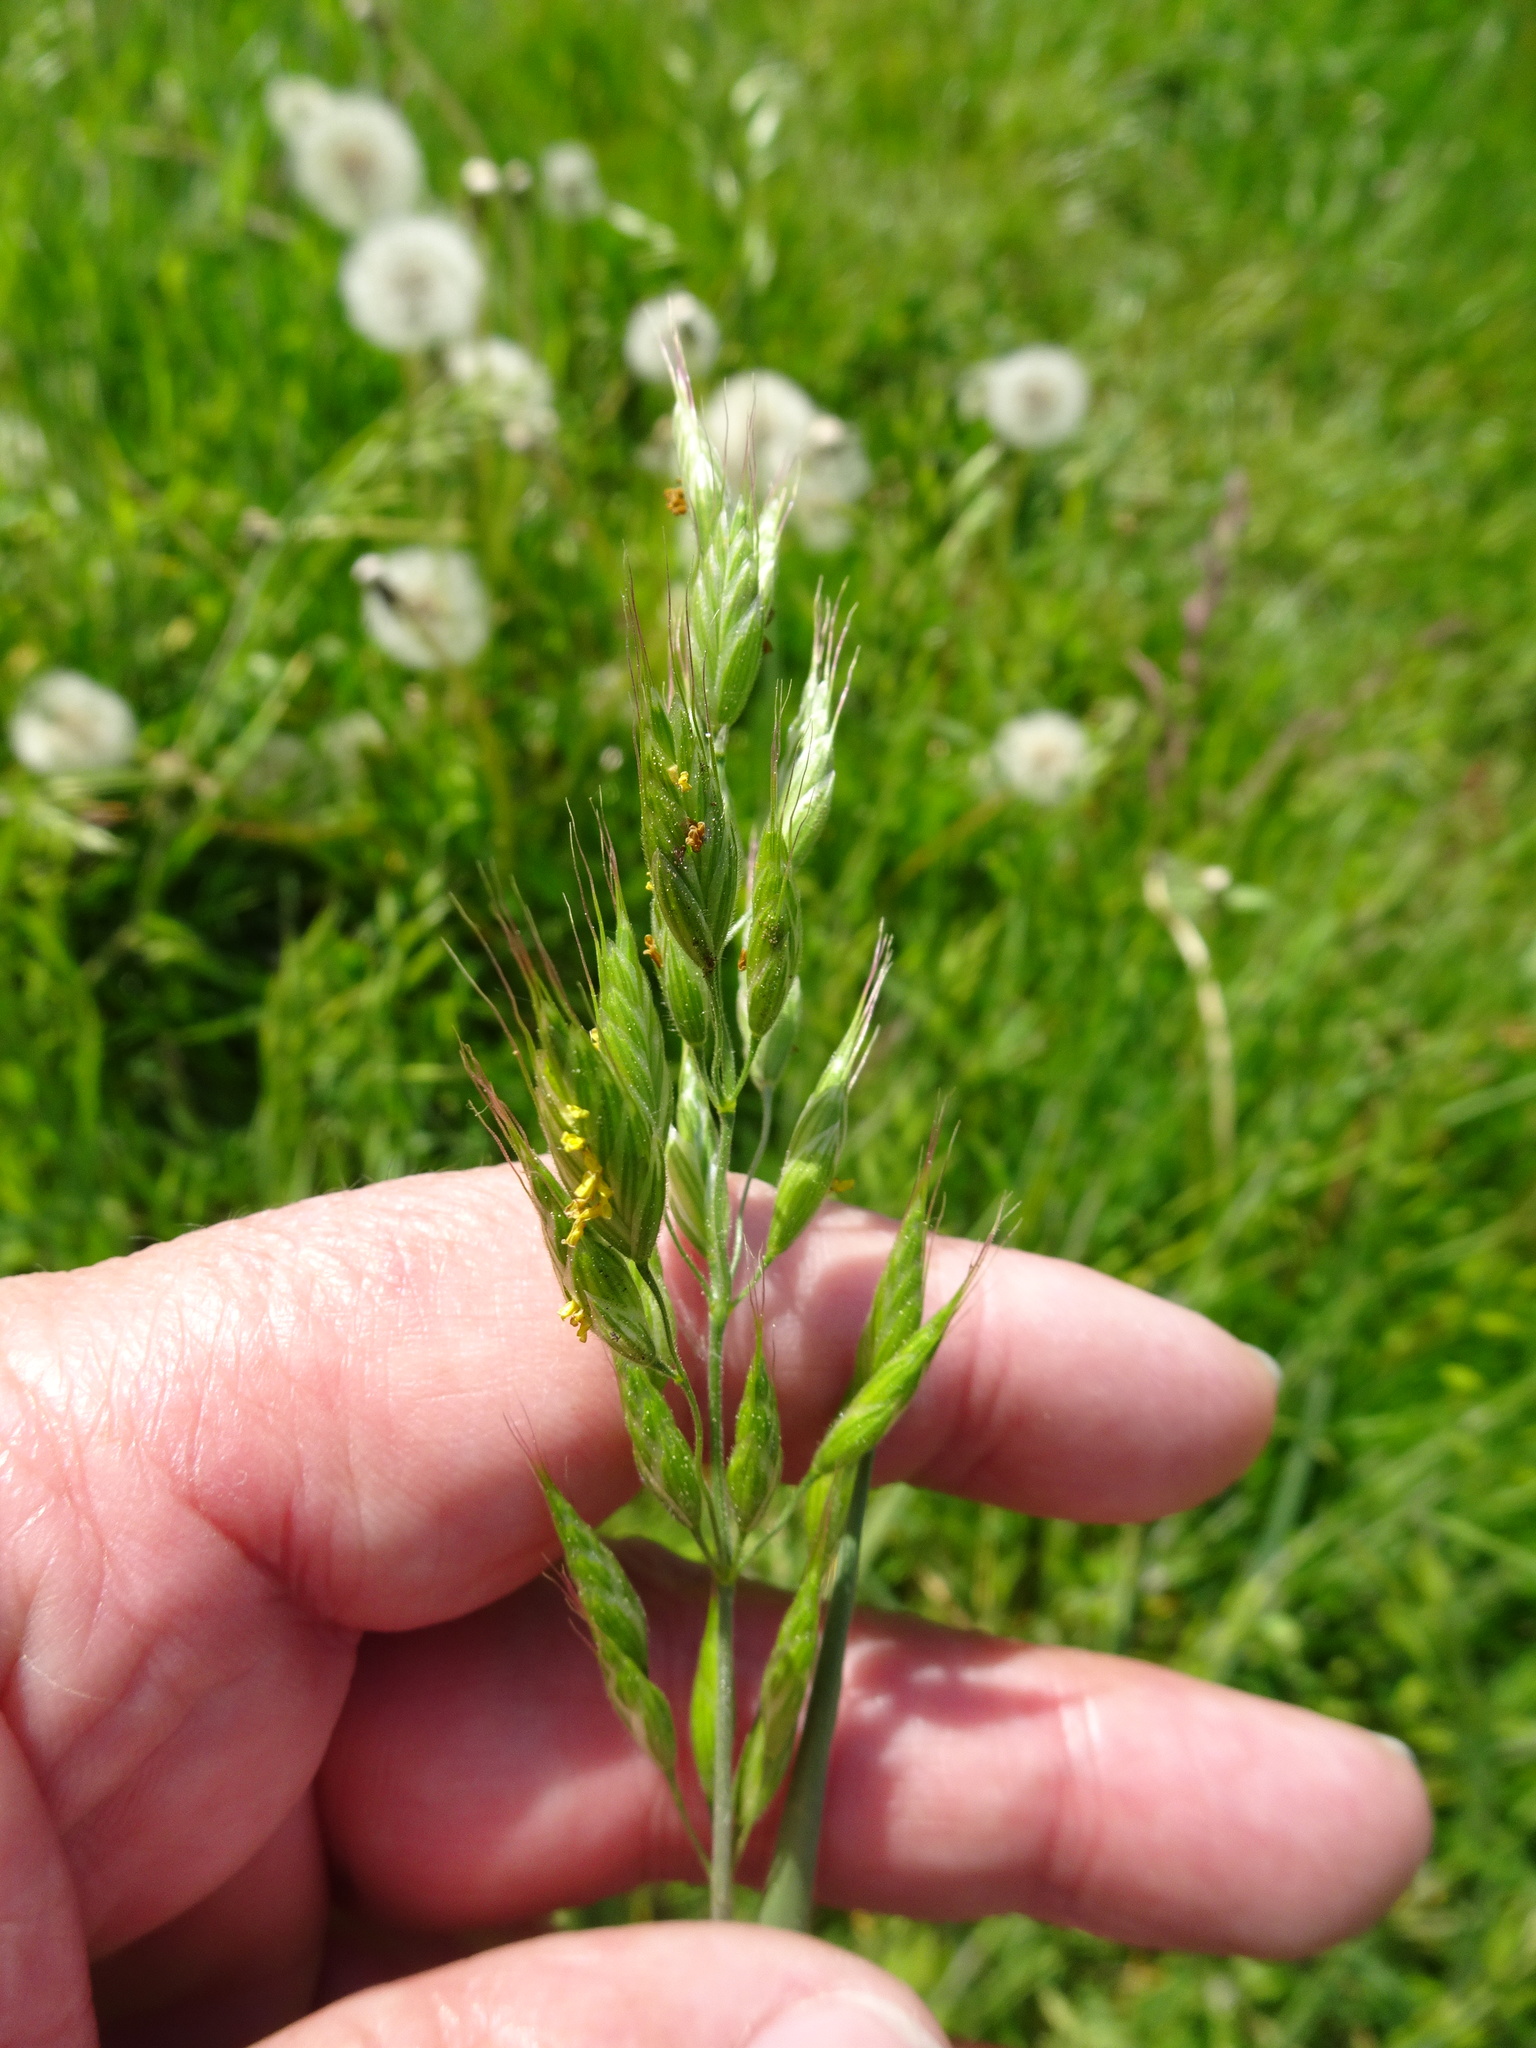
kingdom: Plantae
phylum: Tracheophyta
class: Liliopsida
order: Poales
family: Poaceae
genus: Bromus
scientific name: Bromus hordeaceus
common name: Soft brome
